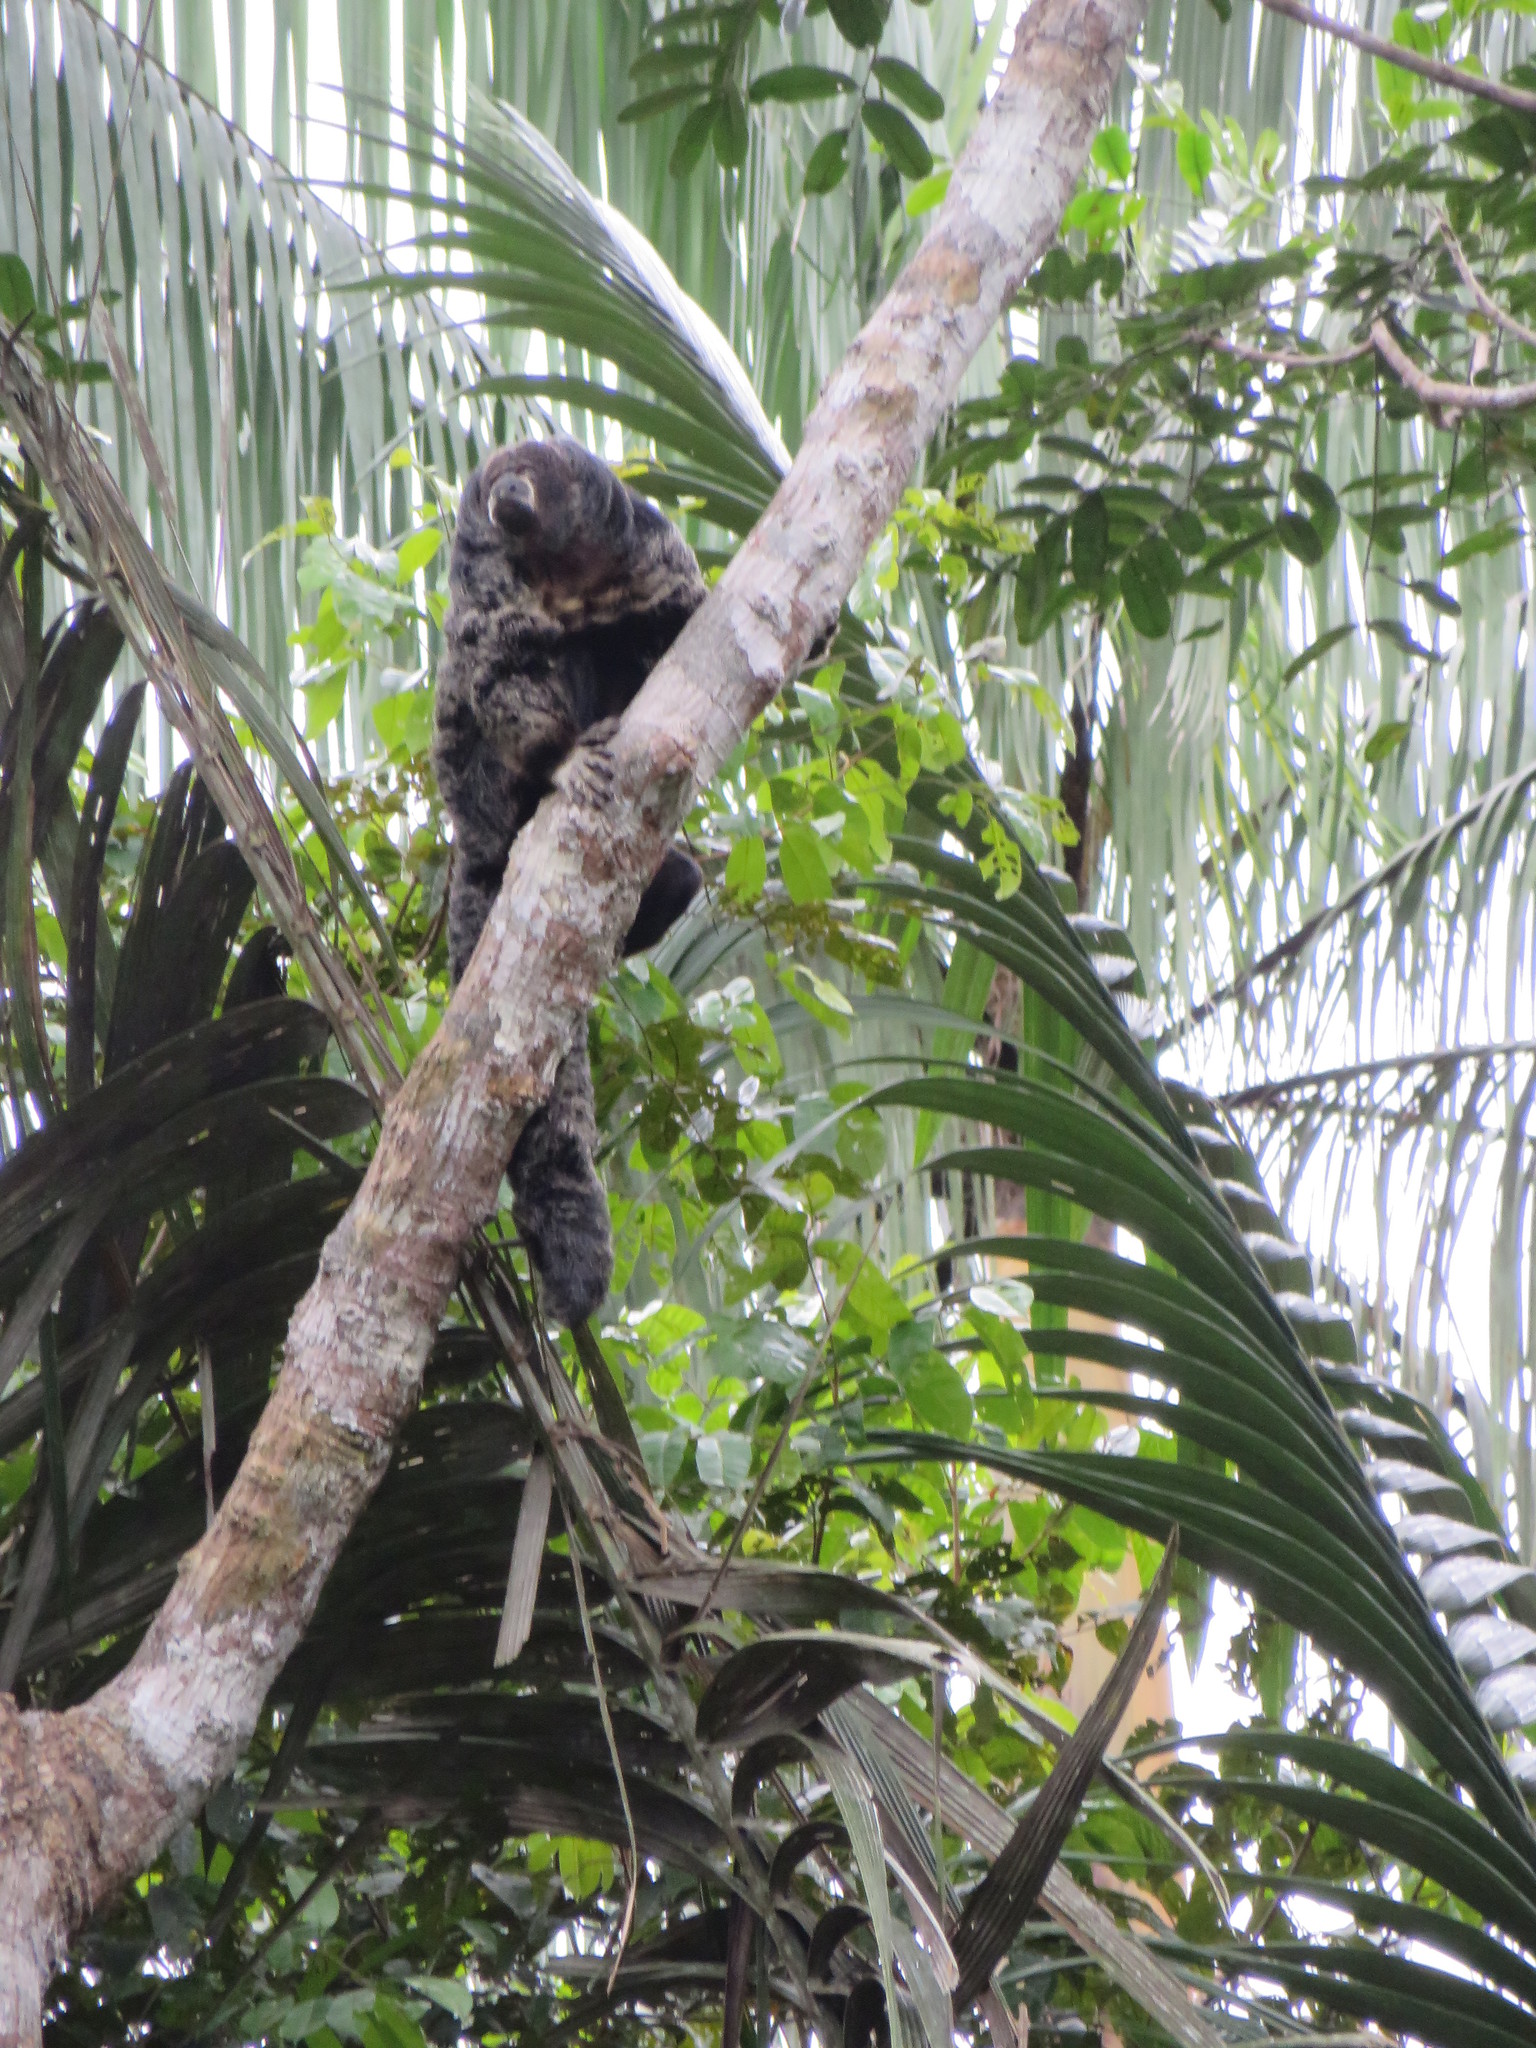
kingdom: Animalia
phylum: Chordata
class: Mammalia
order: Primates
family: Pitheciidae
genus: Pithecia
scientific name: Pithecia milleri
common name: Miller's saki
